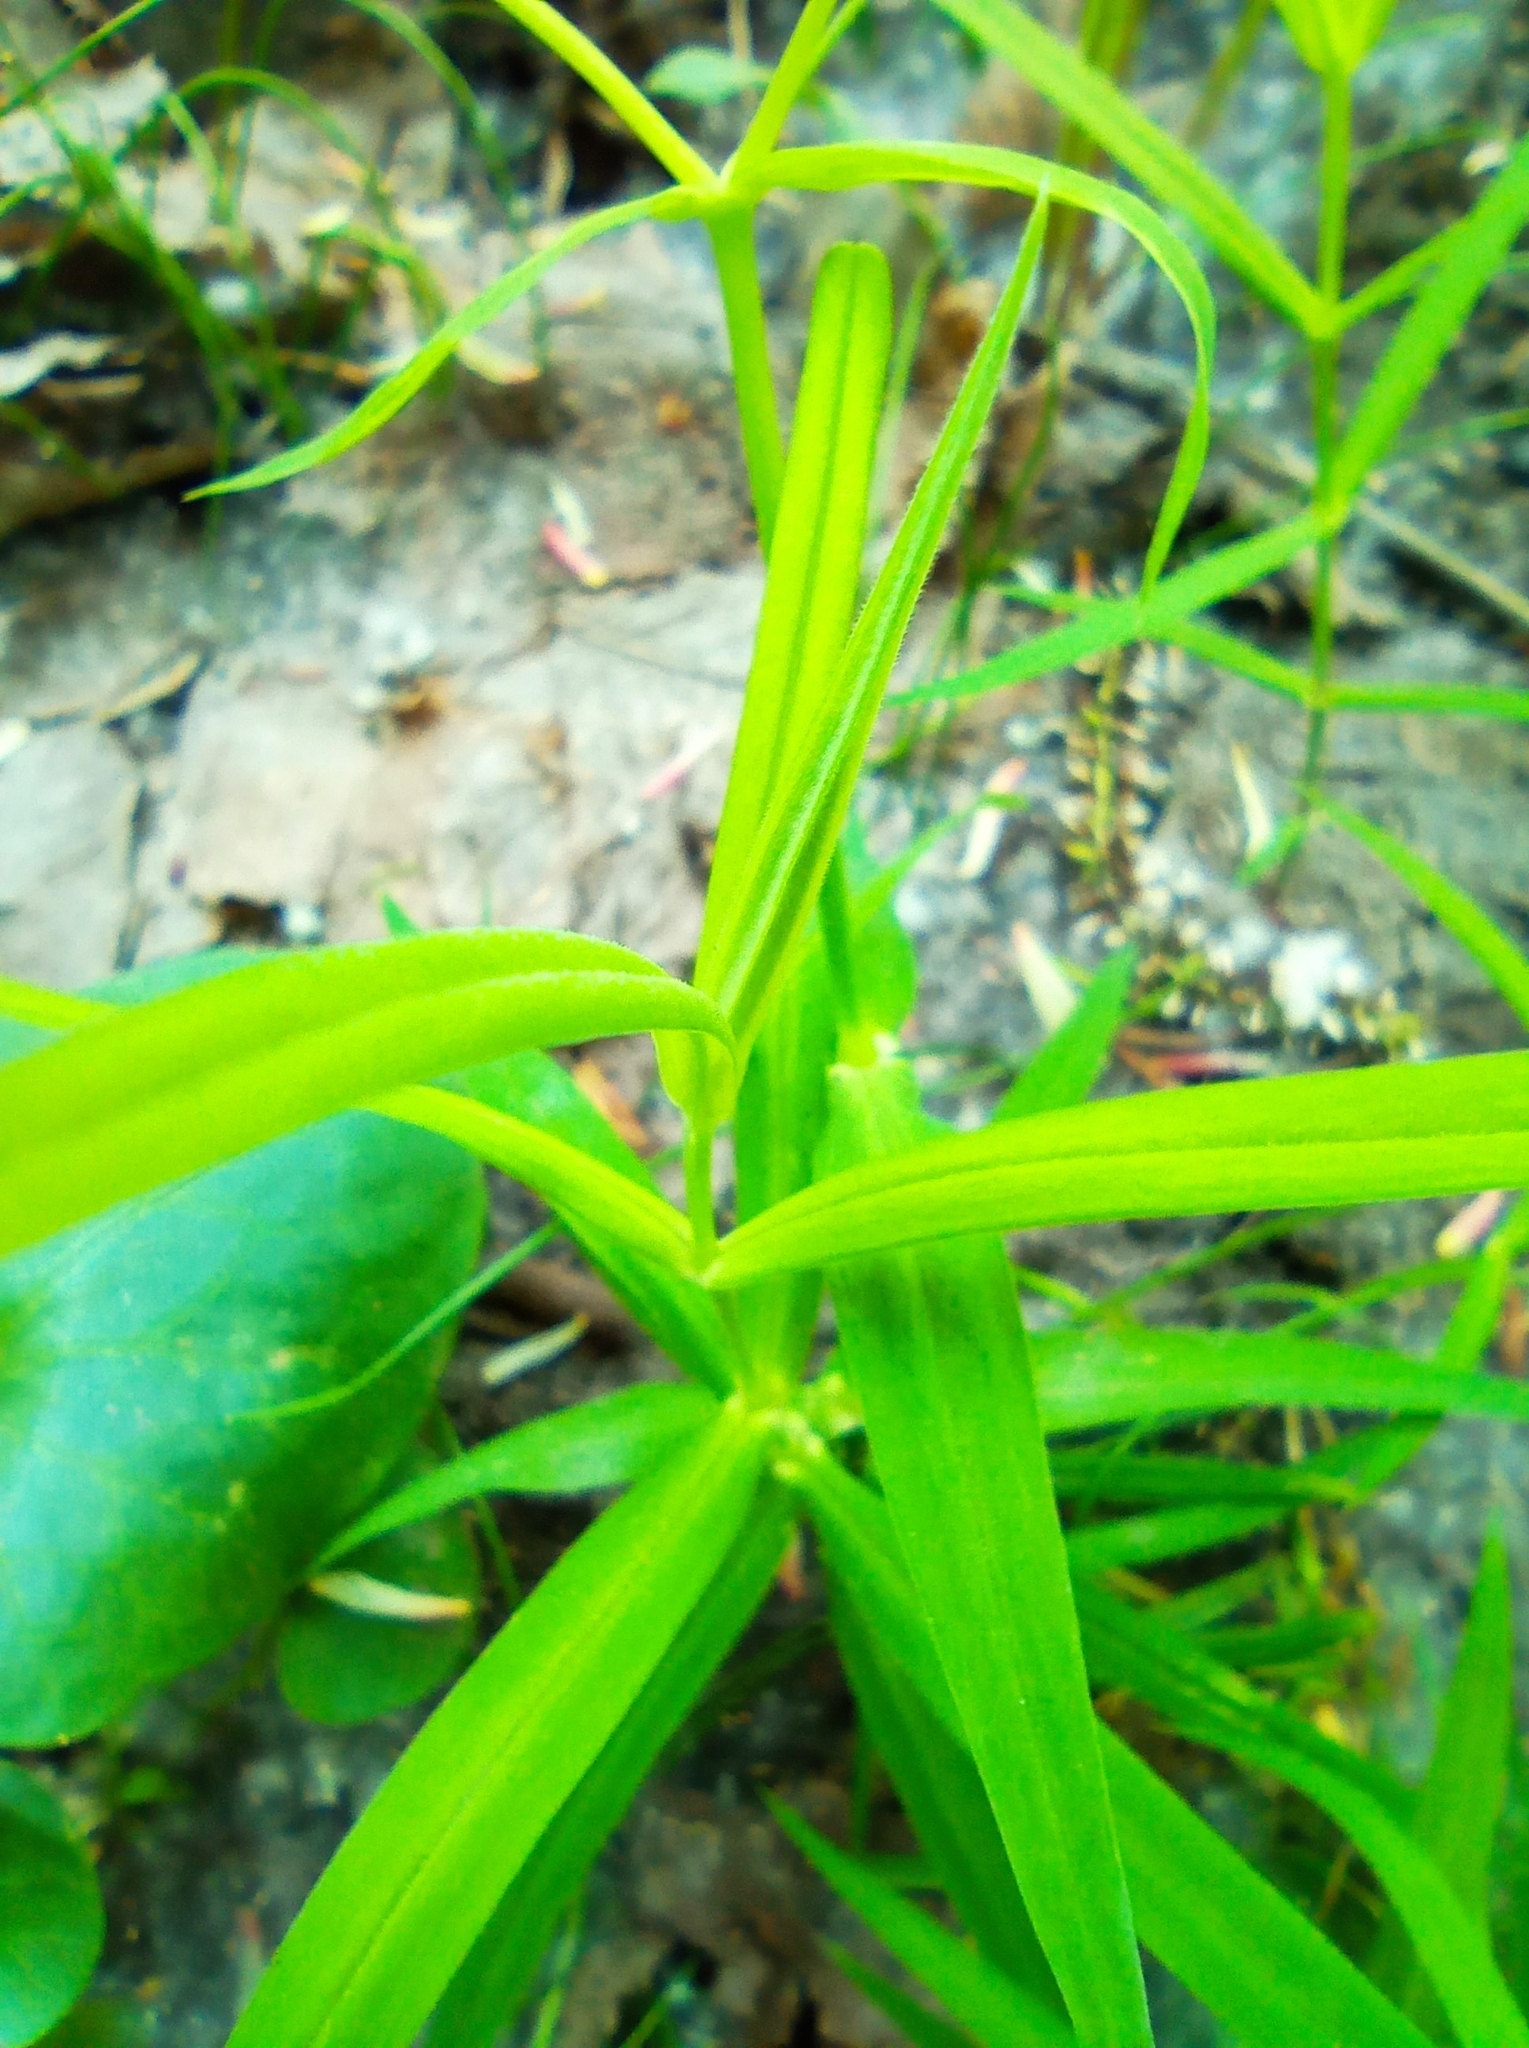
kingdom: Plantae
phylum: Tracheophyta
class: Magnoliopsida
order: Caryophyllales
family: Caryophyllaceae
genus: Rabelera
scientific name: Rabelera holostea
